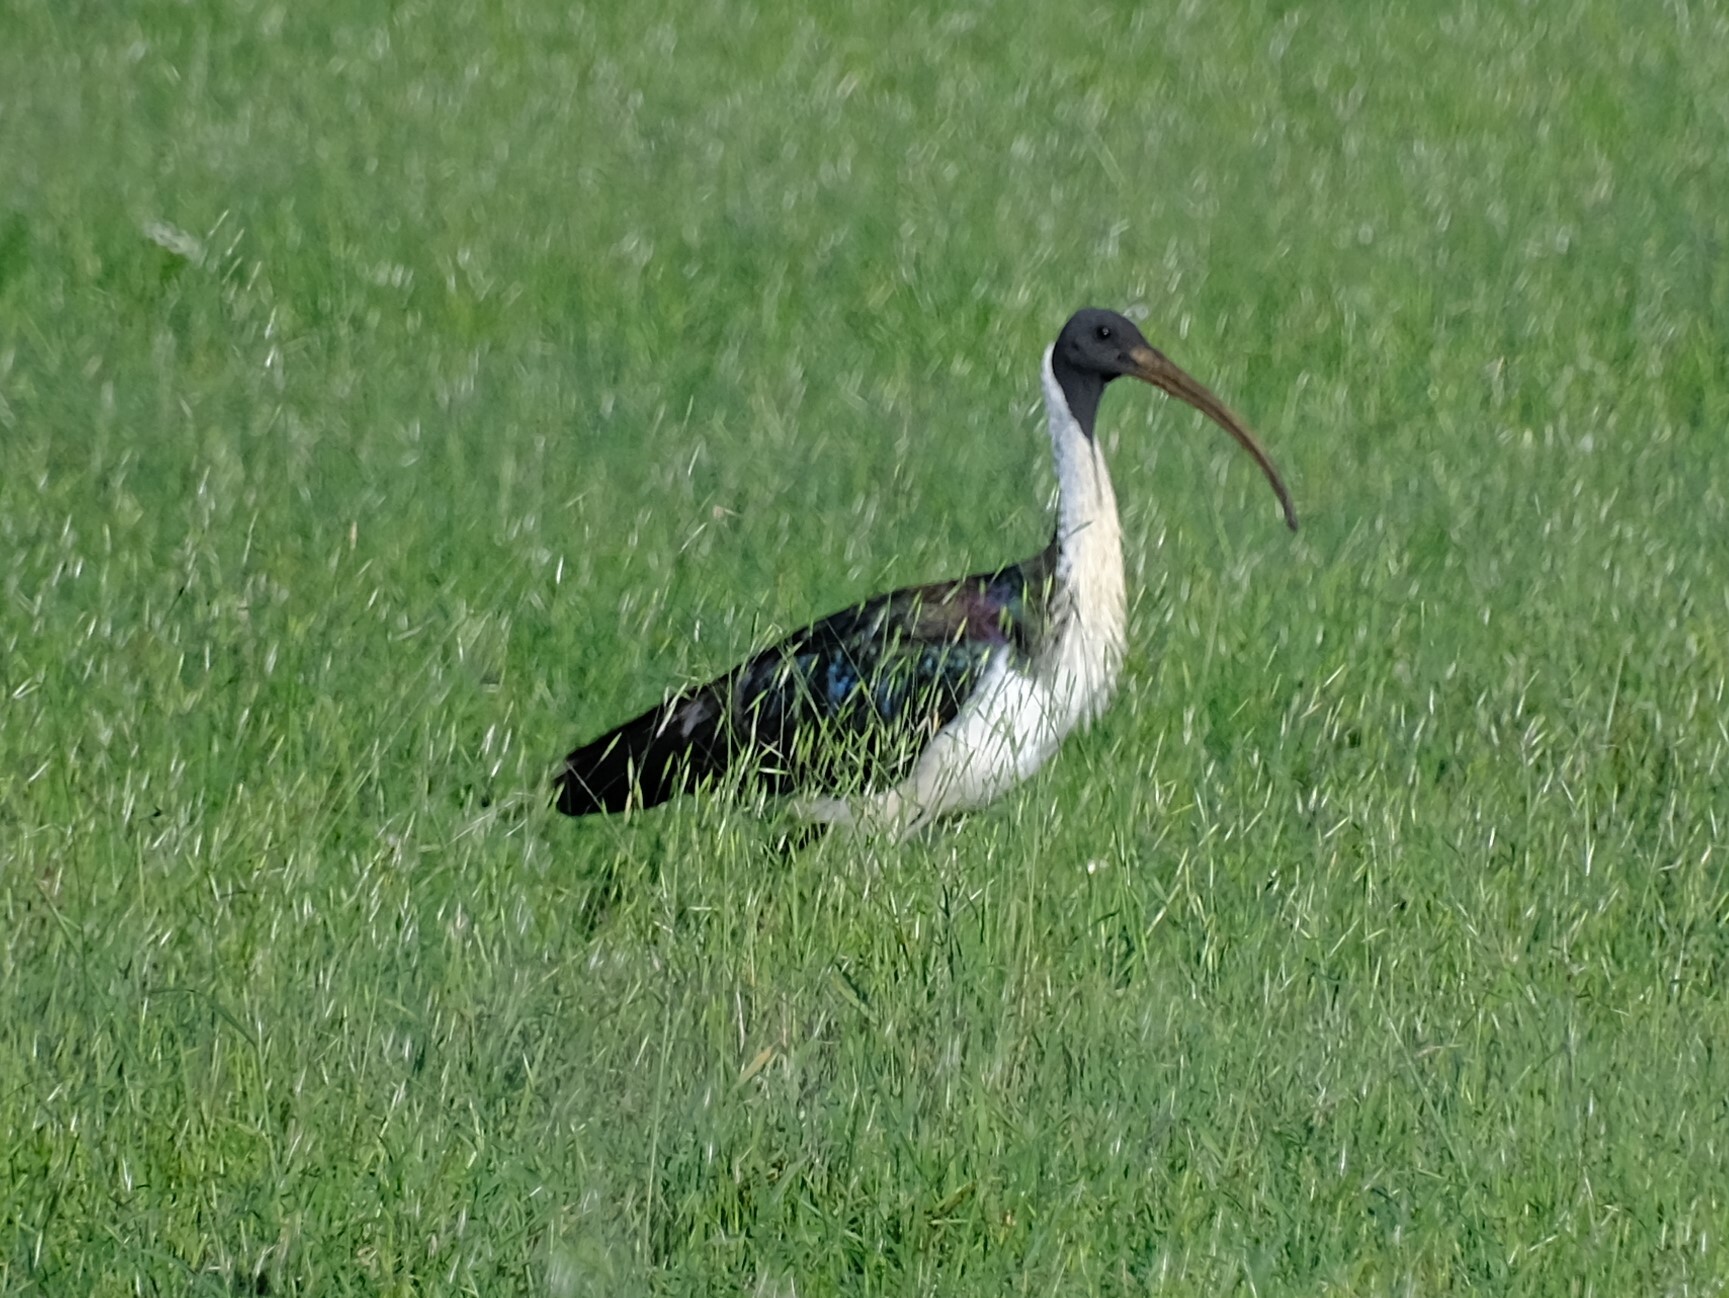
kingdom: Animalia
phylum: Chordata
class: Aves
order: Pelecaniformes
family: Threskiornithidae
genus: Threskiornis
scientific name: Threskiornis spinicollis
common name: Straw-necked ibis
